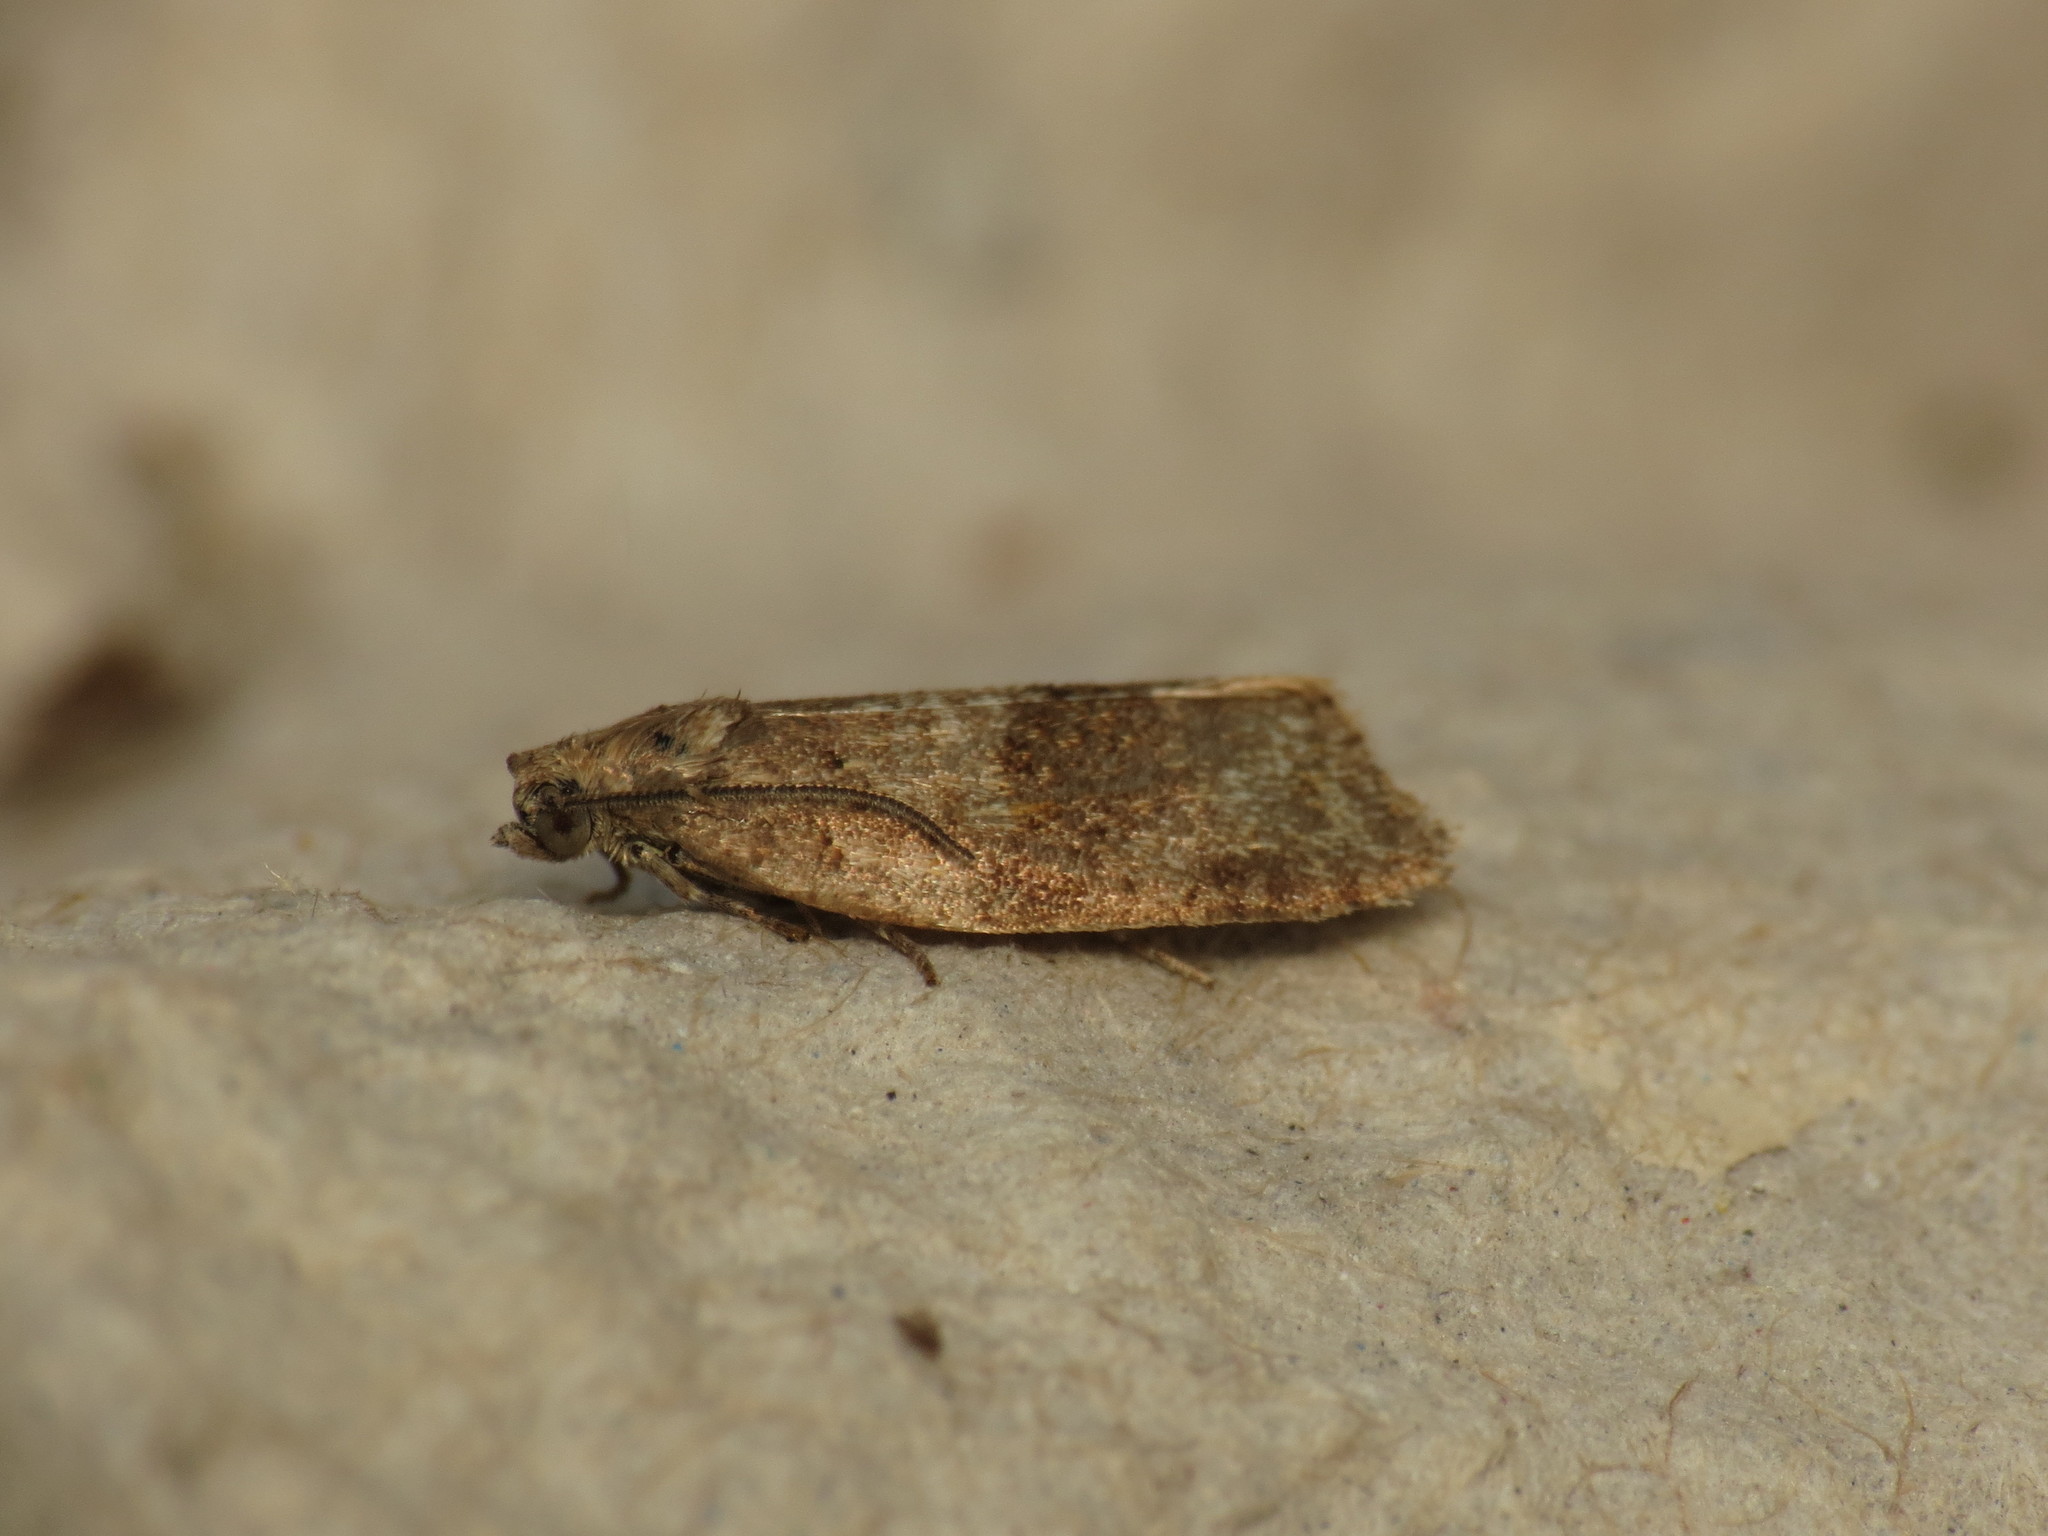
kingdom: Animalia
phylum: Arthropoda
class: Insecta
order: Lepidoptera
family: Tortricidae
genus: Syndemis
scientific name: Syndemis musculana
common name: Dark-barred twist
